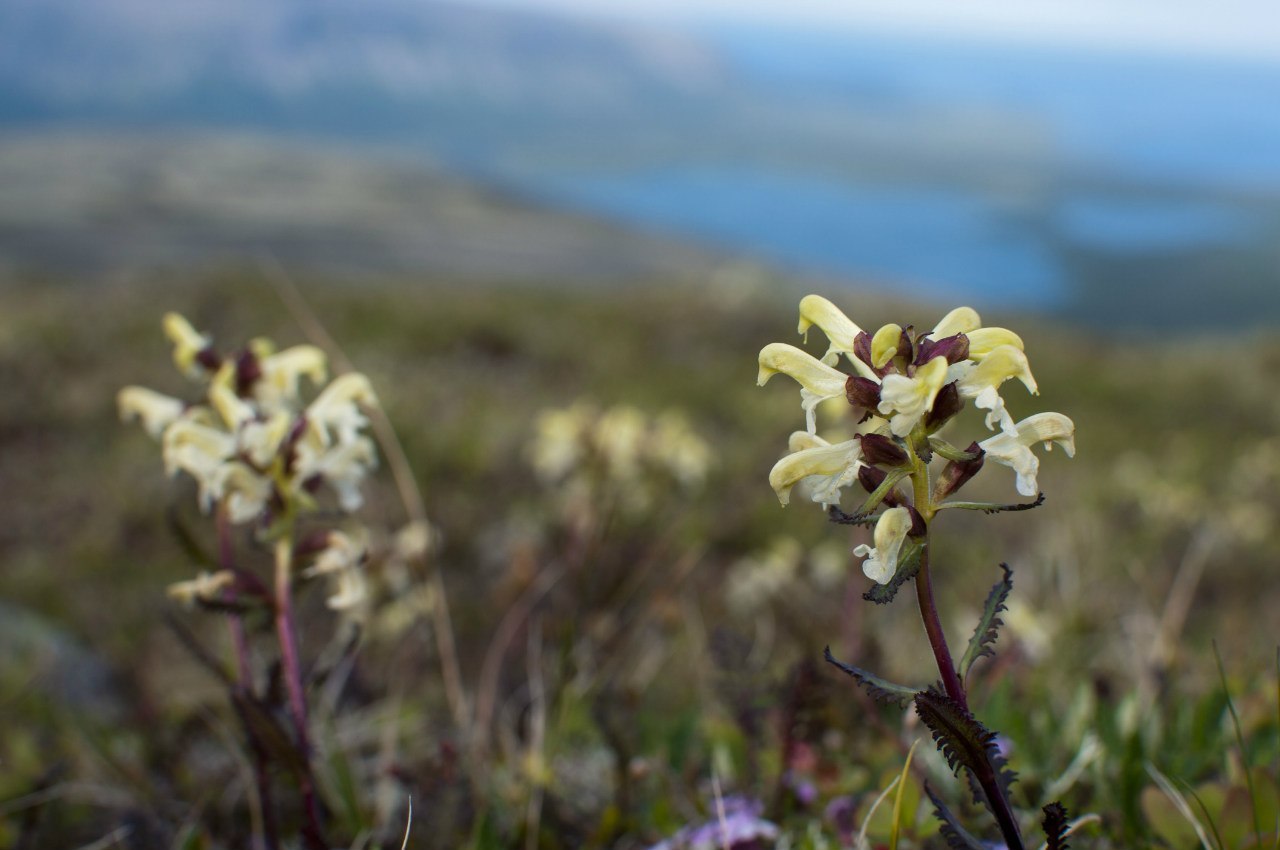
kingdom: Plantae
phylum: Tracheophyta
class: Magnoliopsida
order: Lamiales
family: Orobanchaceae
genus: Pedicularis
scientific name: Pedicularis lapponica
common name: Lapland lousewort
